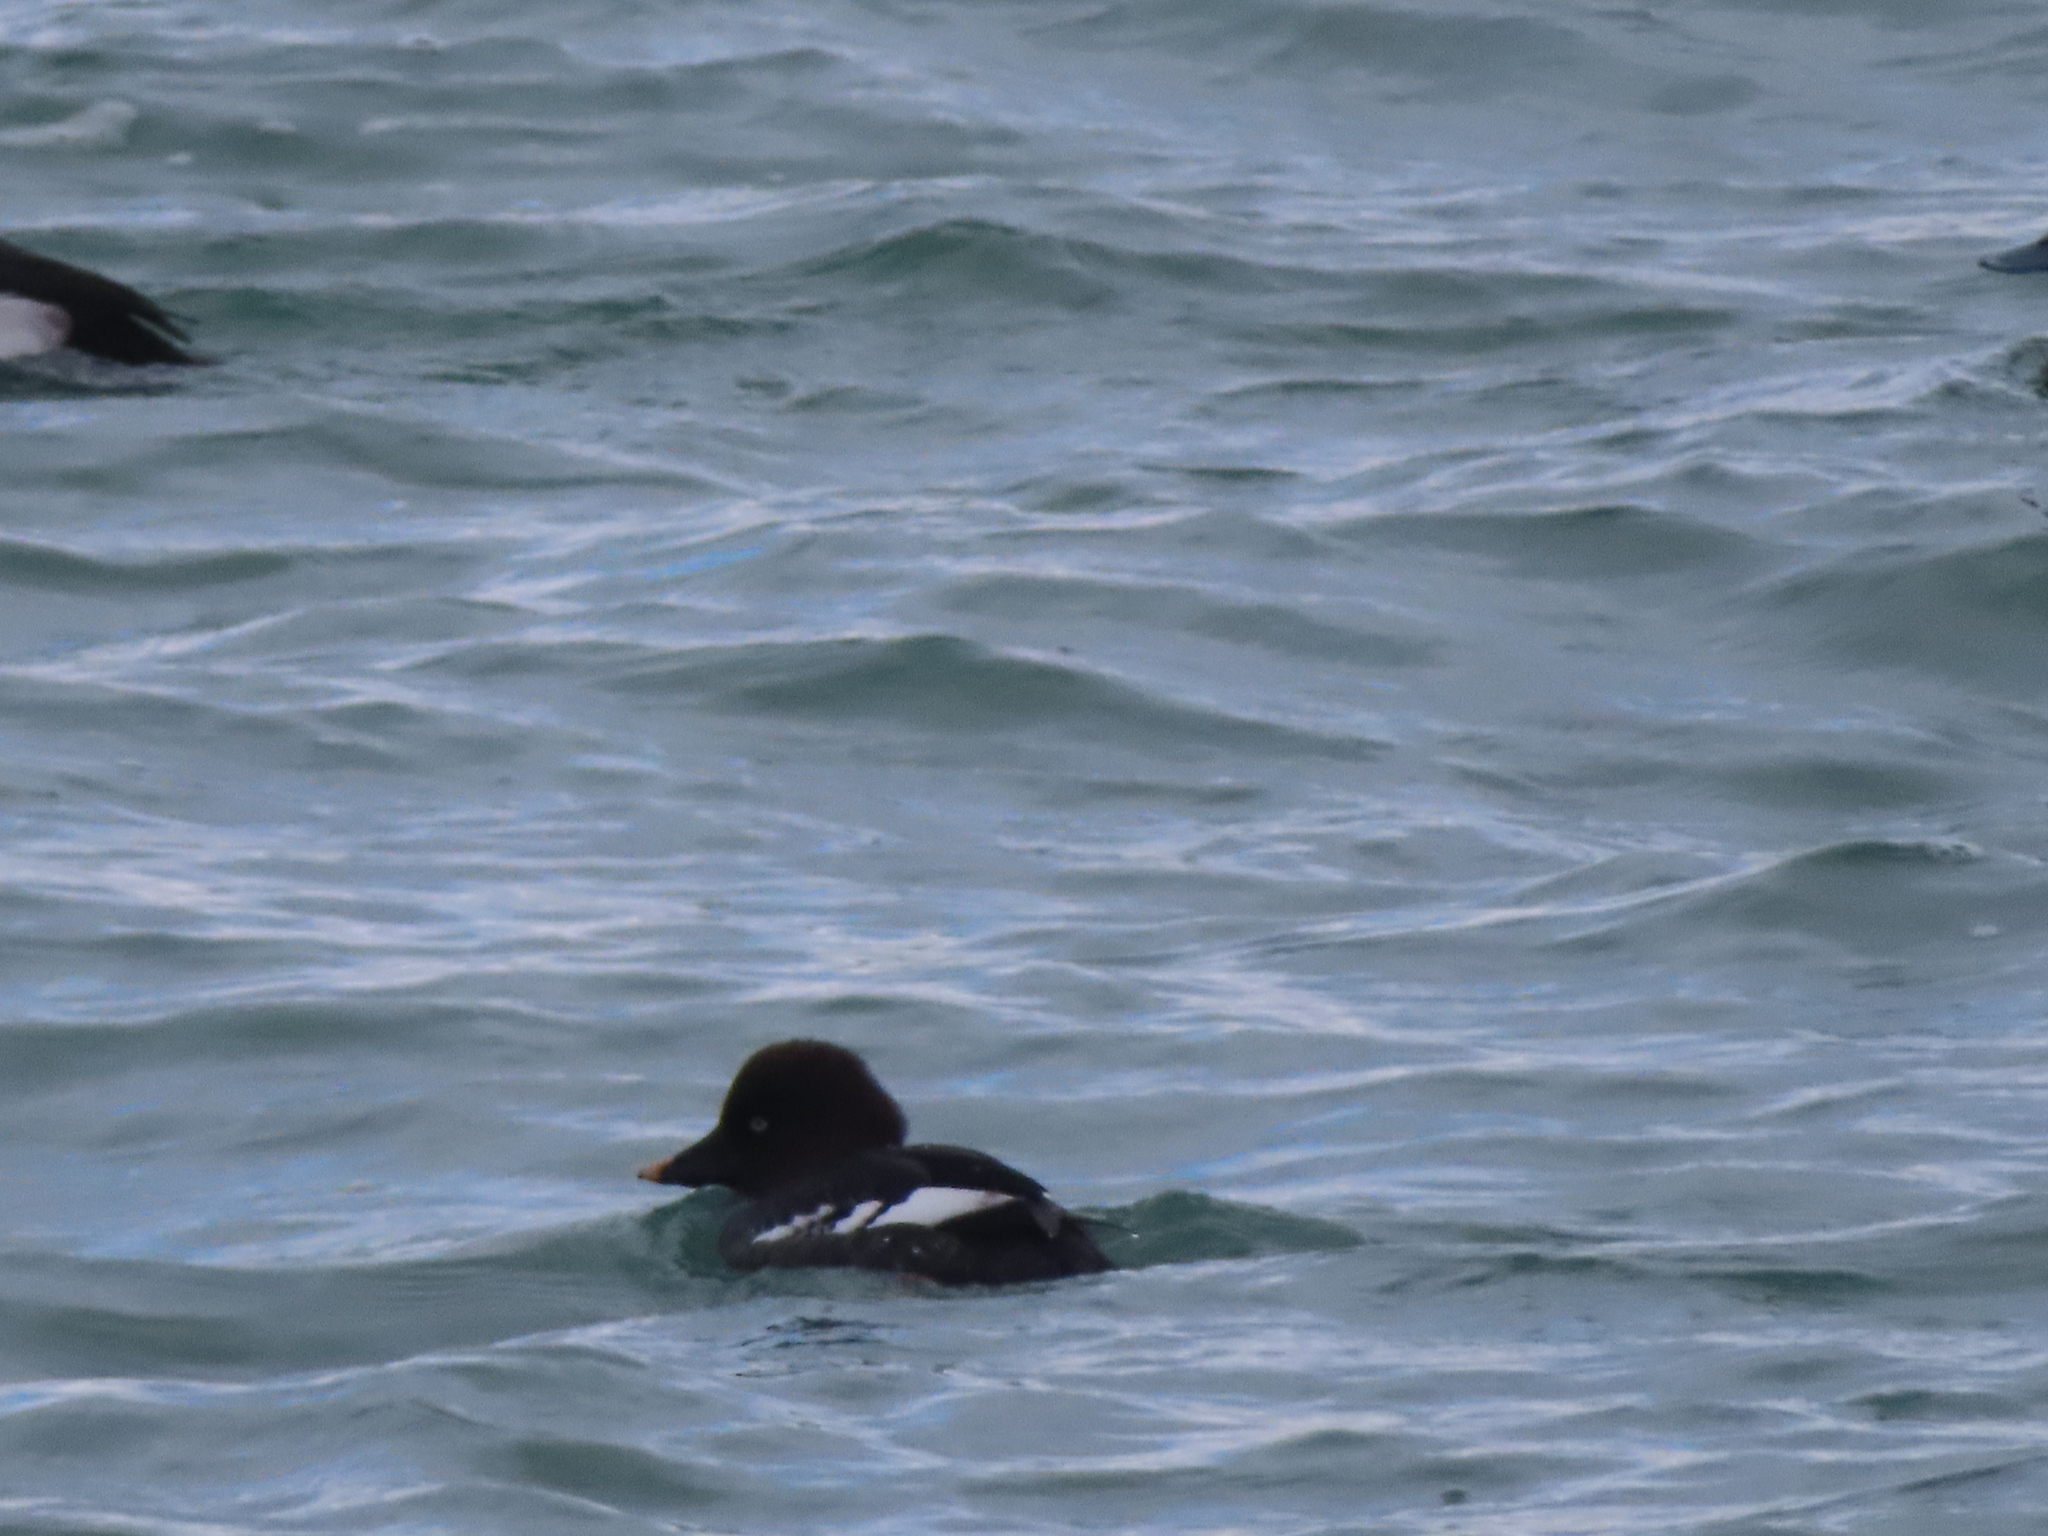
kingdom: Animalia
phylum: Chordata
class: Aves
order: Anseriformes
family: Anatidae
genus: Bucephala
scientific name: Bucephala clangula
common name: Common goldeneye
